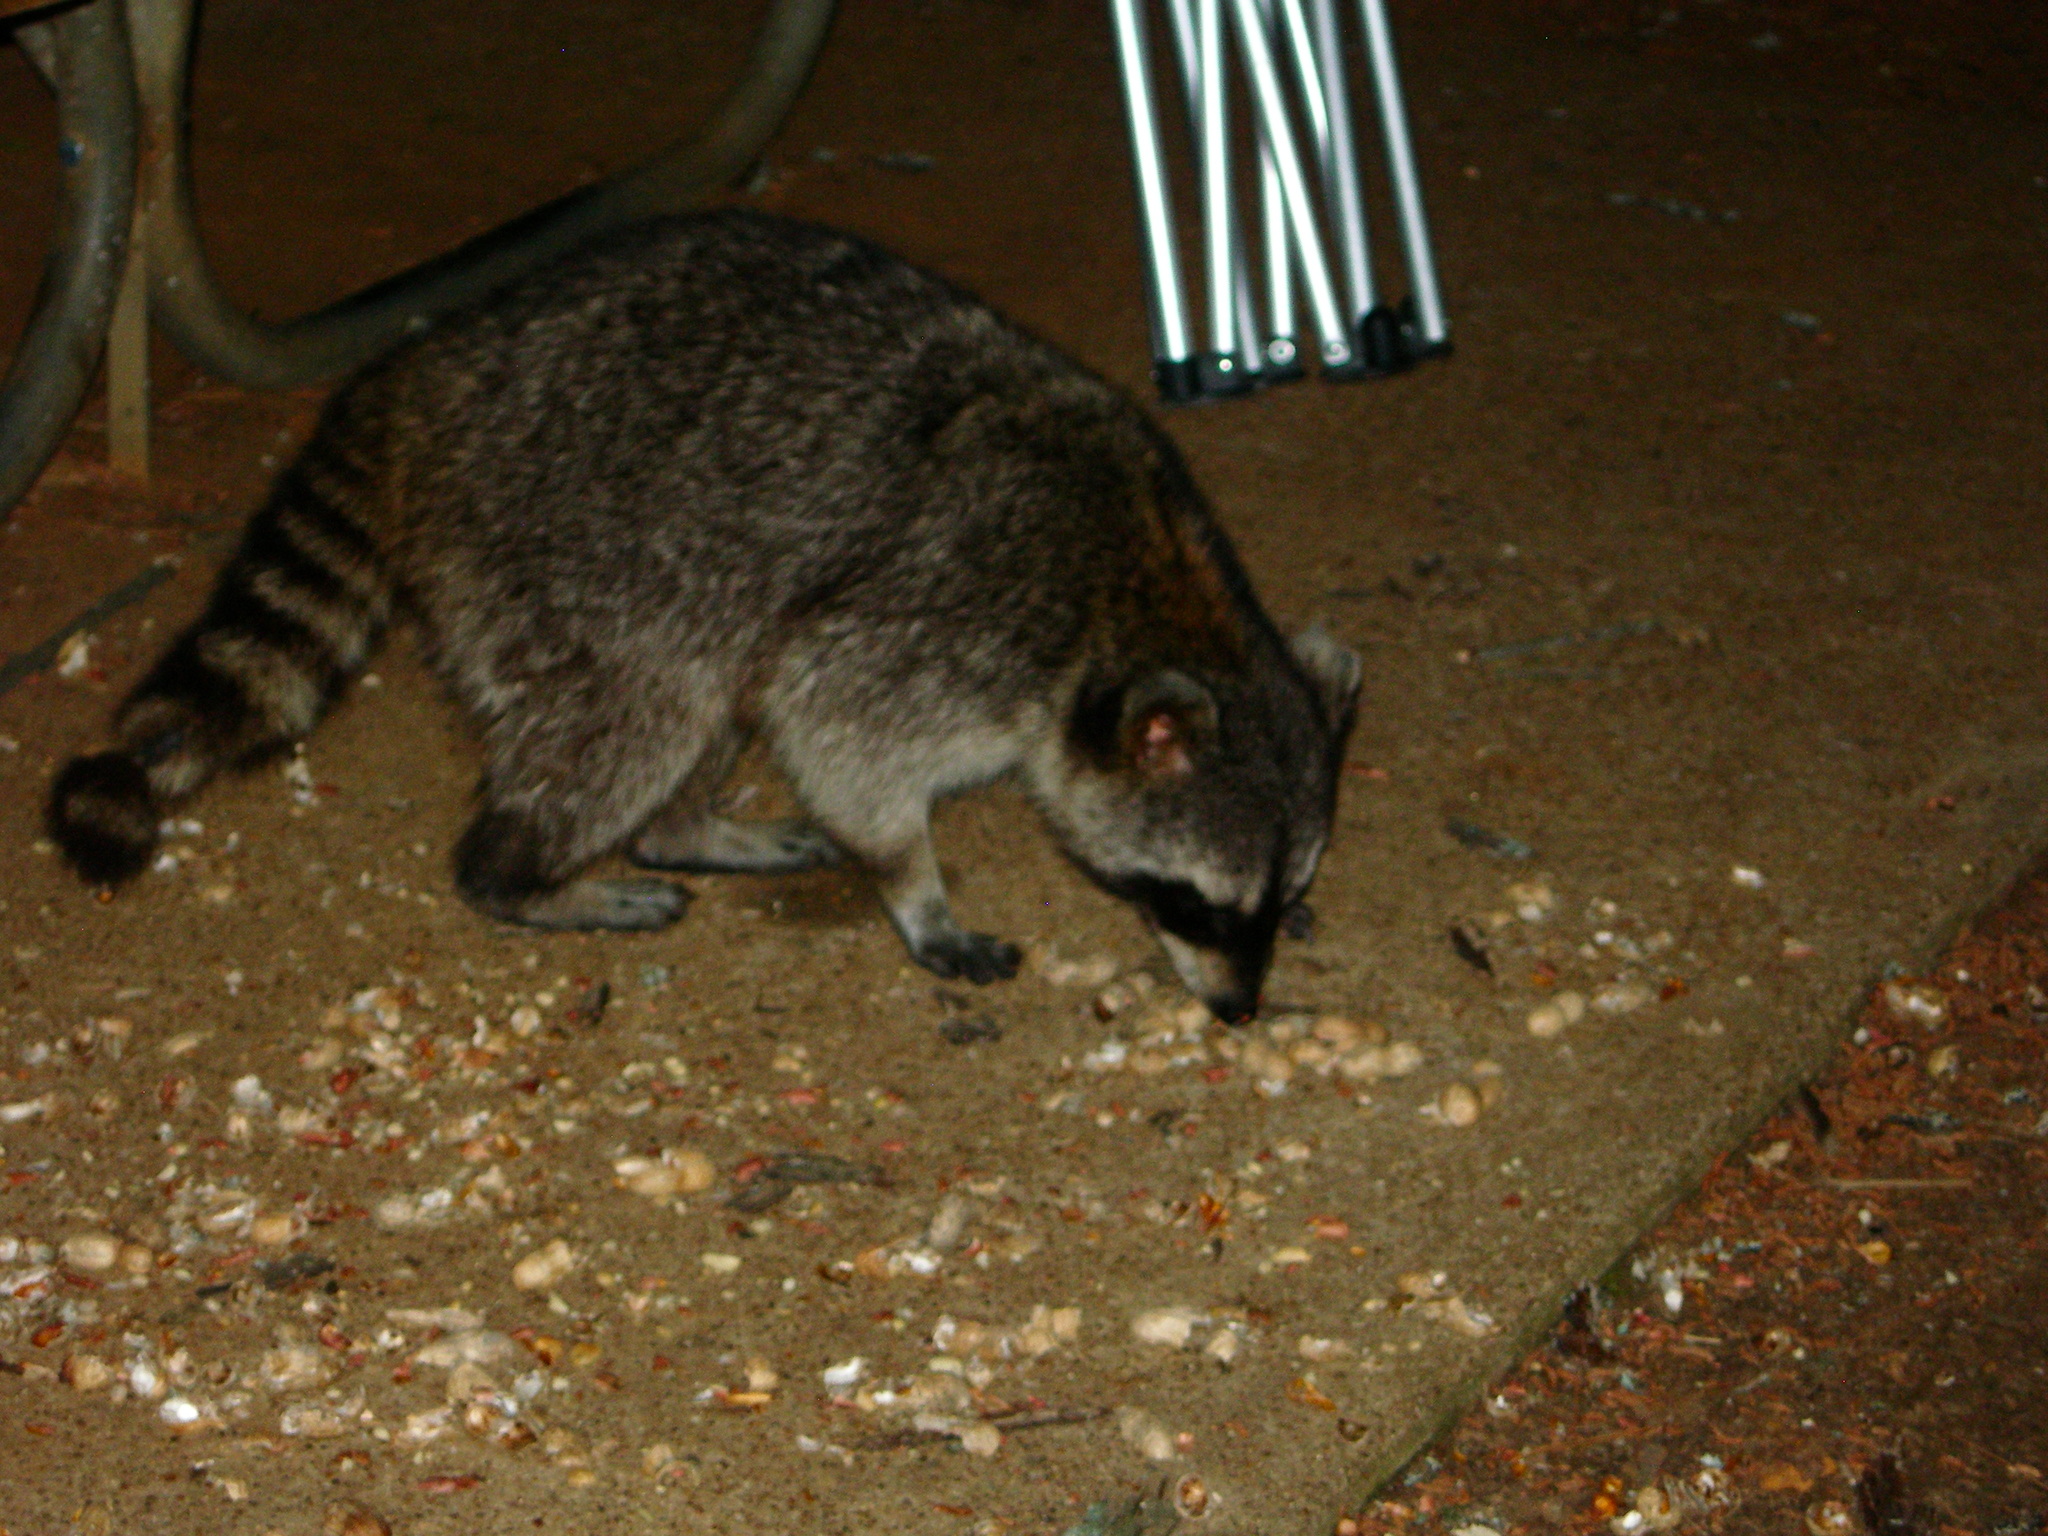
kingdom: Animalia
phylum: Chordata
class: Mammalia
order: Carnivora
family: Procyonidae
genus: Procyon
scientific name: Procyon lotor
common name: Raccoon
